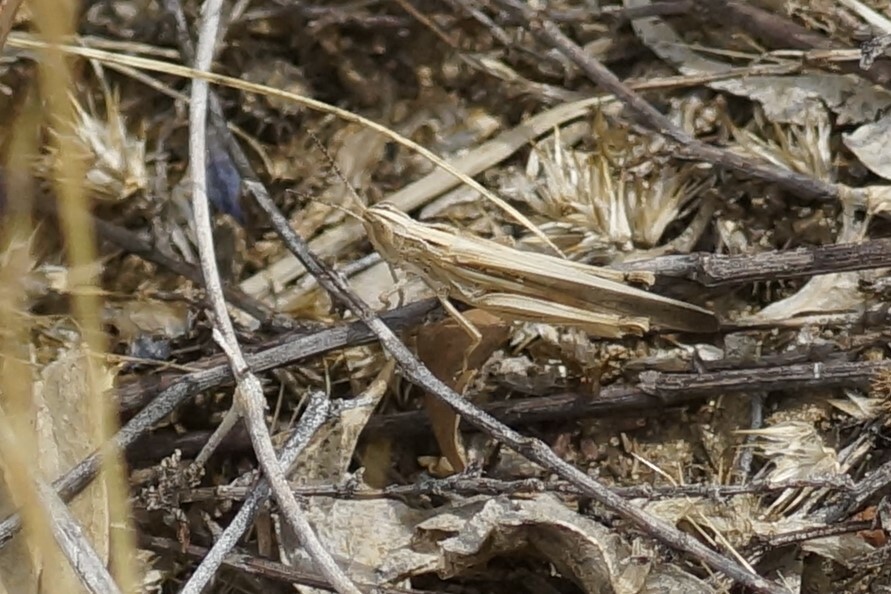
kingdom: Animalia
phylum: Arthropoda
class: Insecta
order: Orthoptera
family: Acrididae
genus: Aiolopus
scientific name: Aiolopus thalassinus
